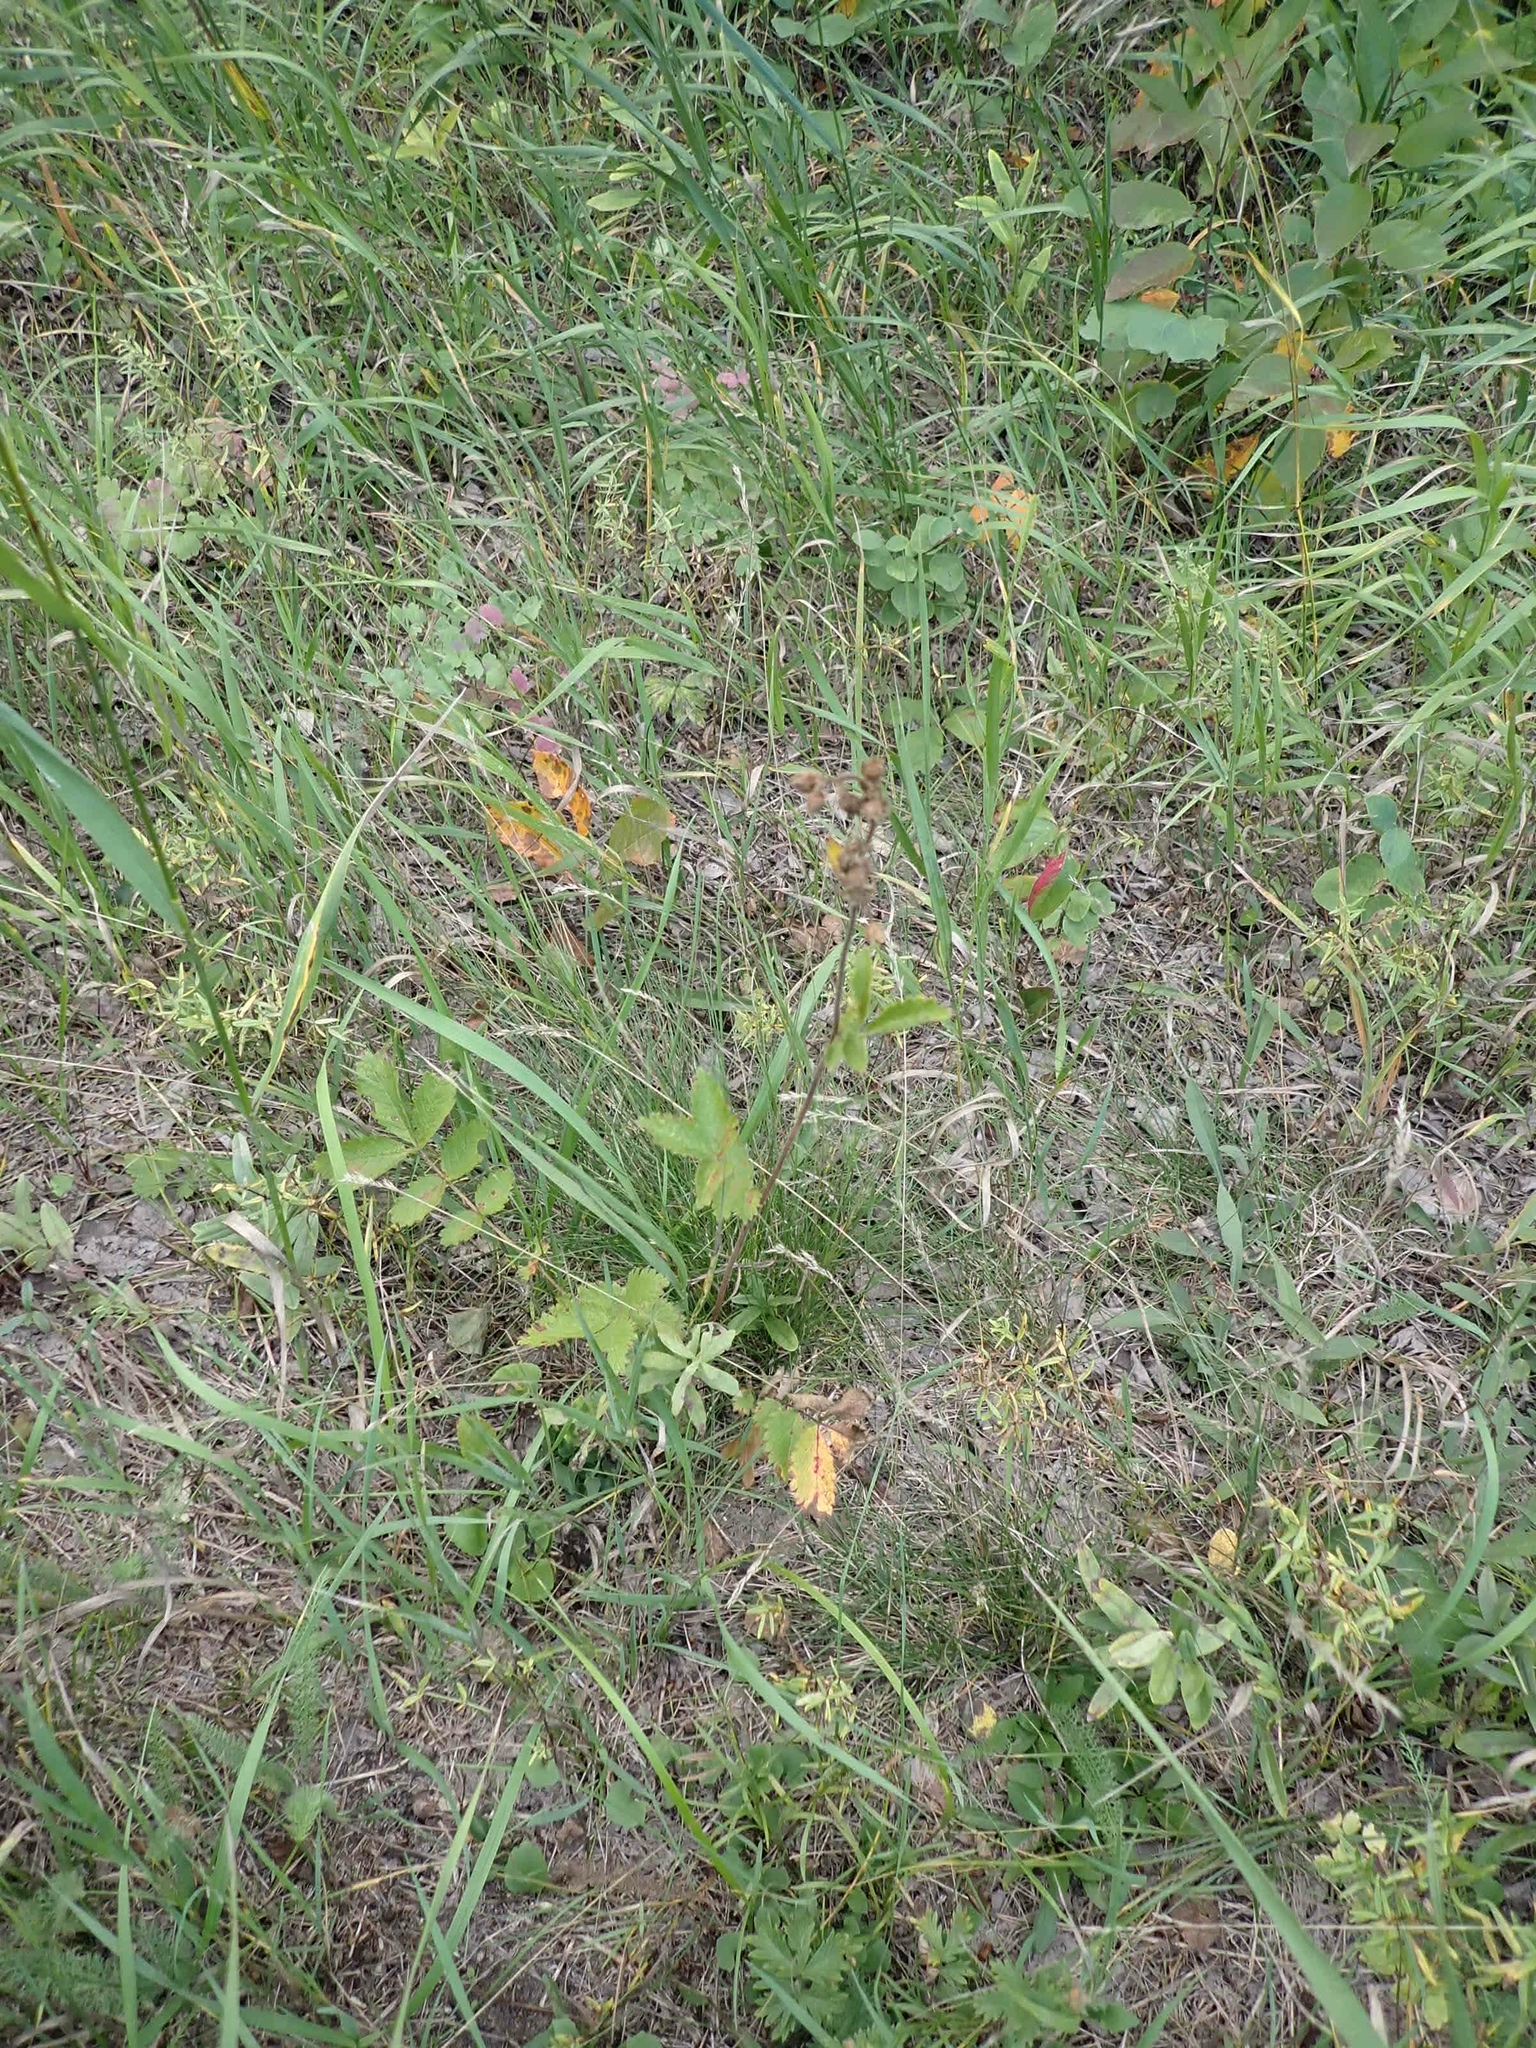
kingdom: Plantae
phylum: Tracheophyta
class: Magnoliopsida
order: Rosales
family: Rosaceae
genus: Drymocallis
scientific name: Drymocallis arguta
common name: Tall cinquefoil
